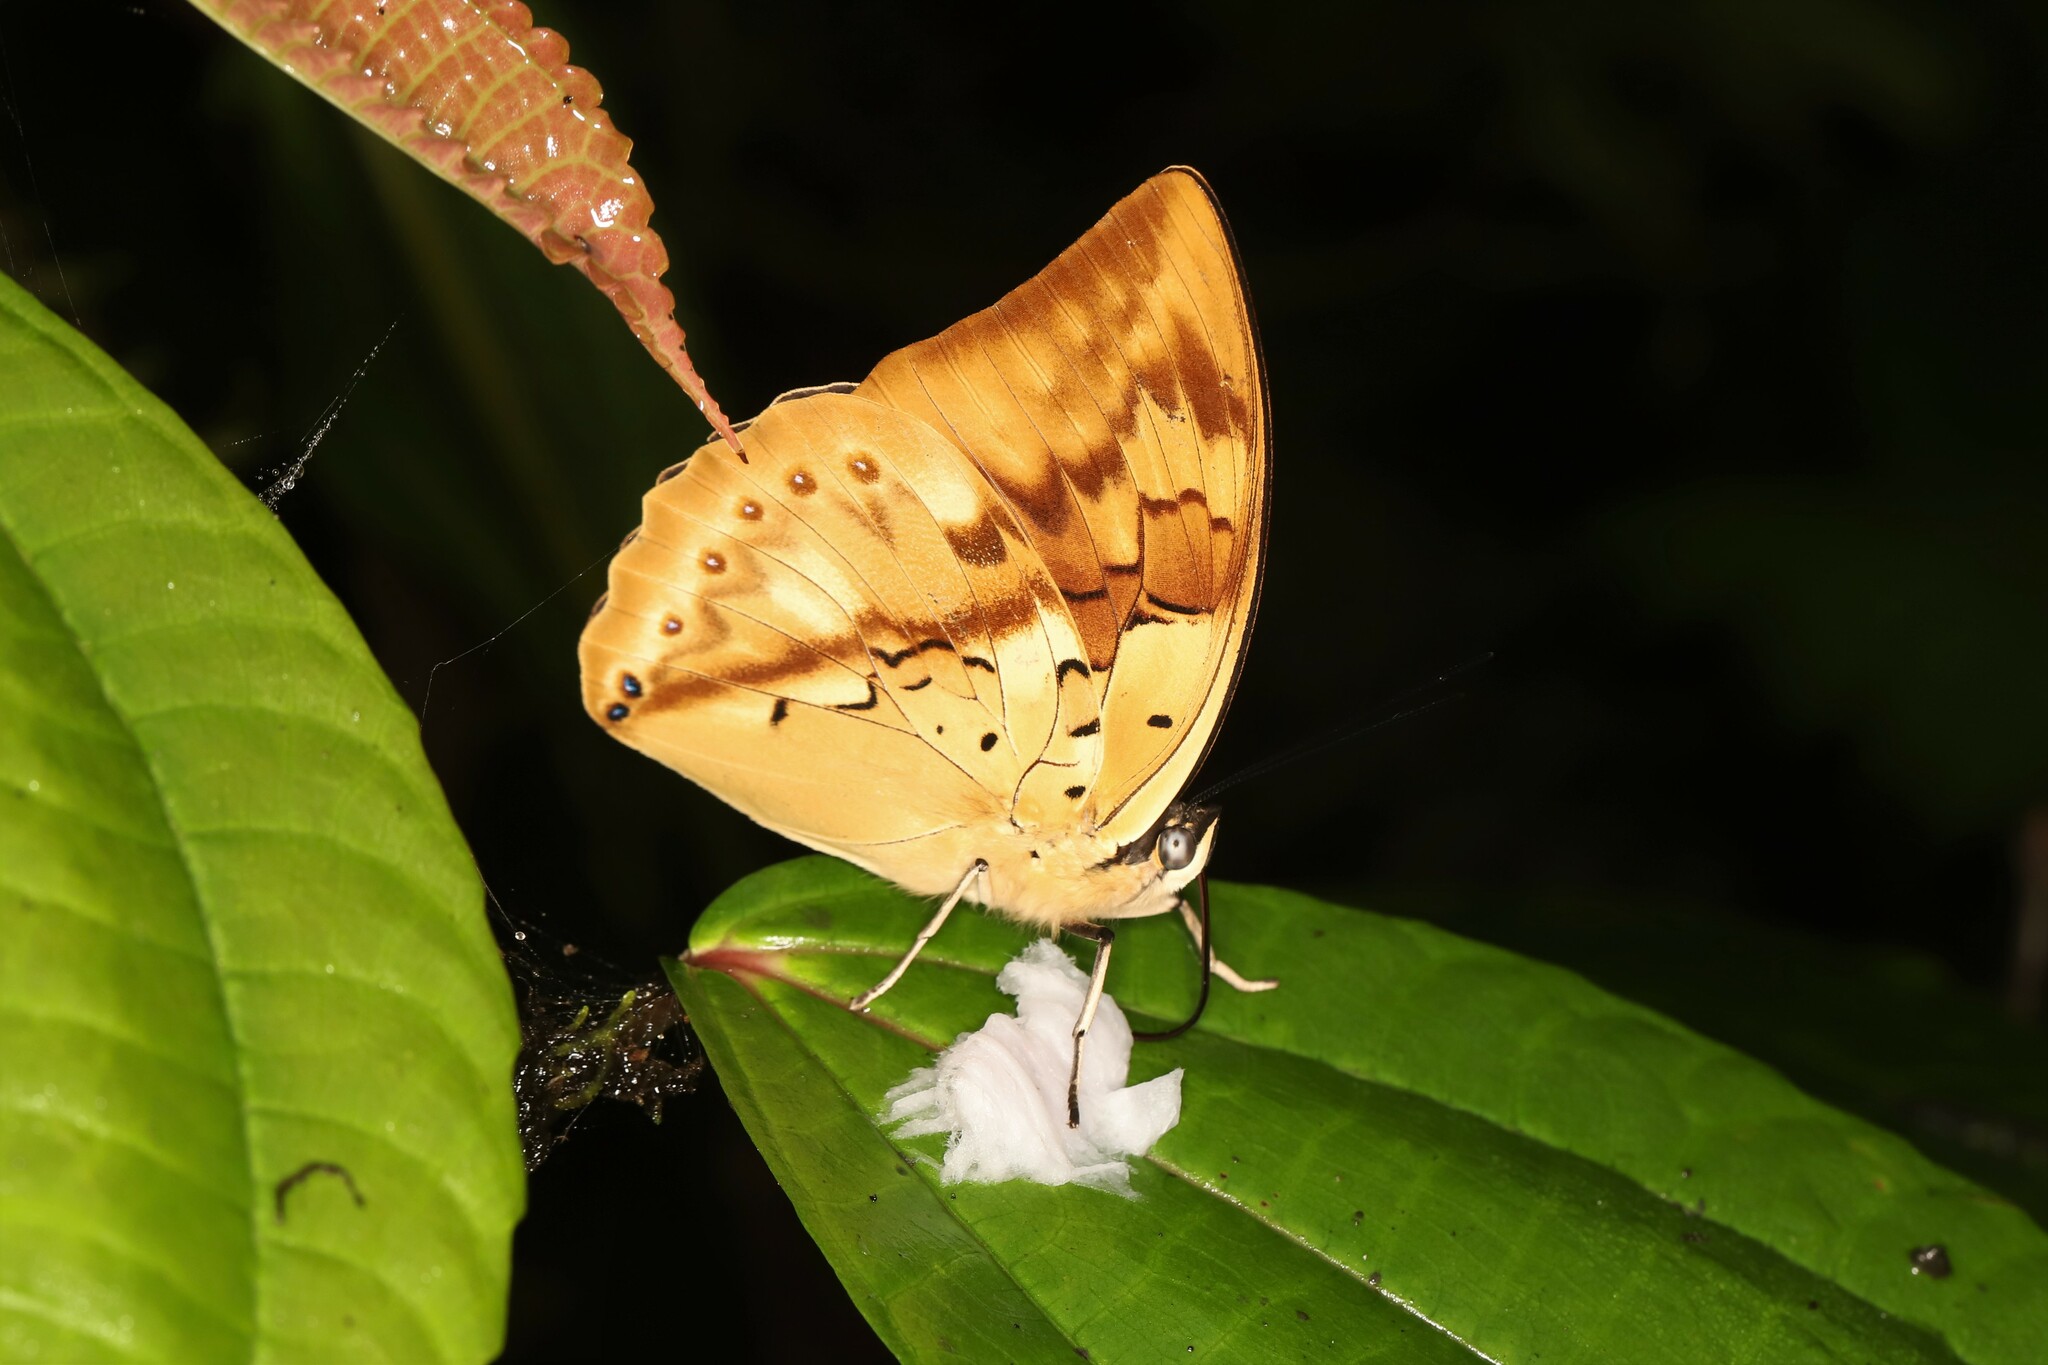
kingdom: Animalia
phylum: Arthropoda
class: Insecta
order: Lepidoptera
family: Nymphalidae
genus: Prepona
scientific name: Prepona licomedes
